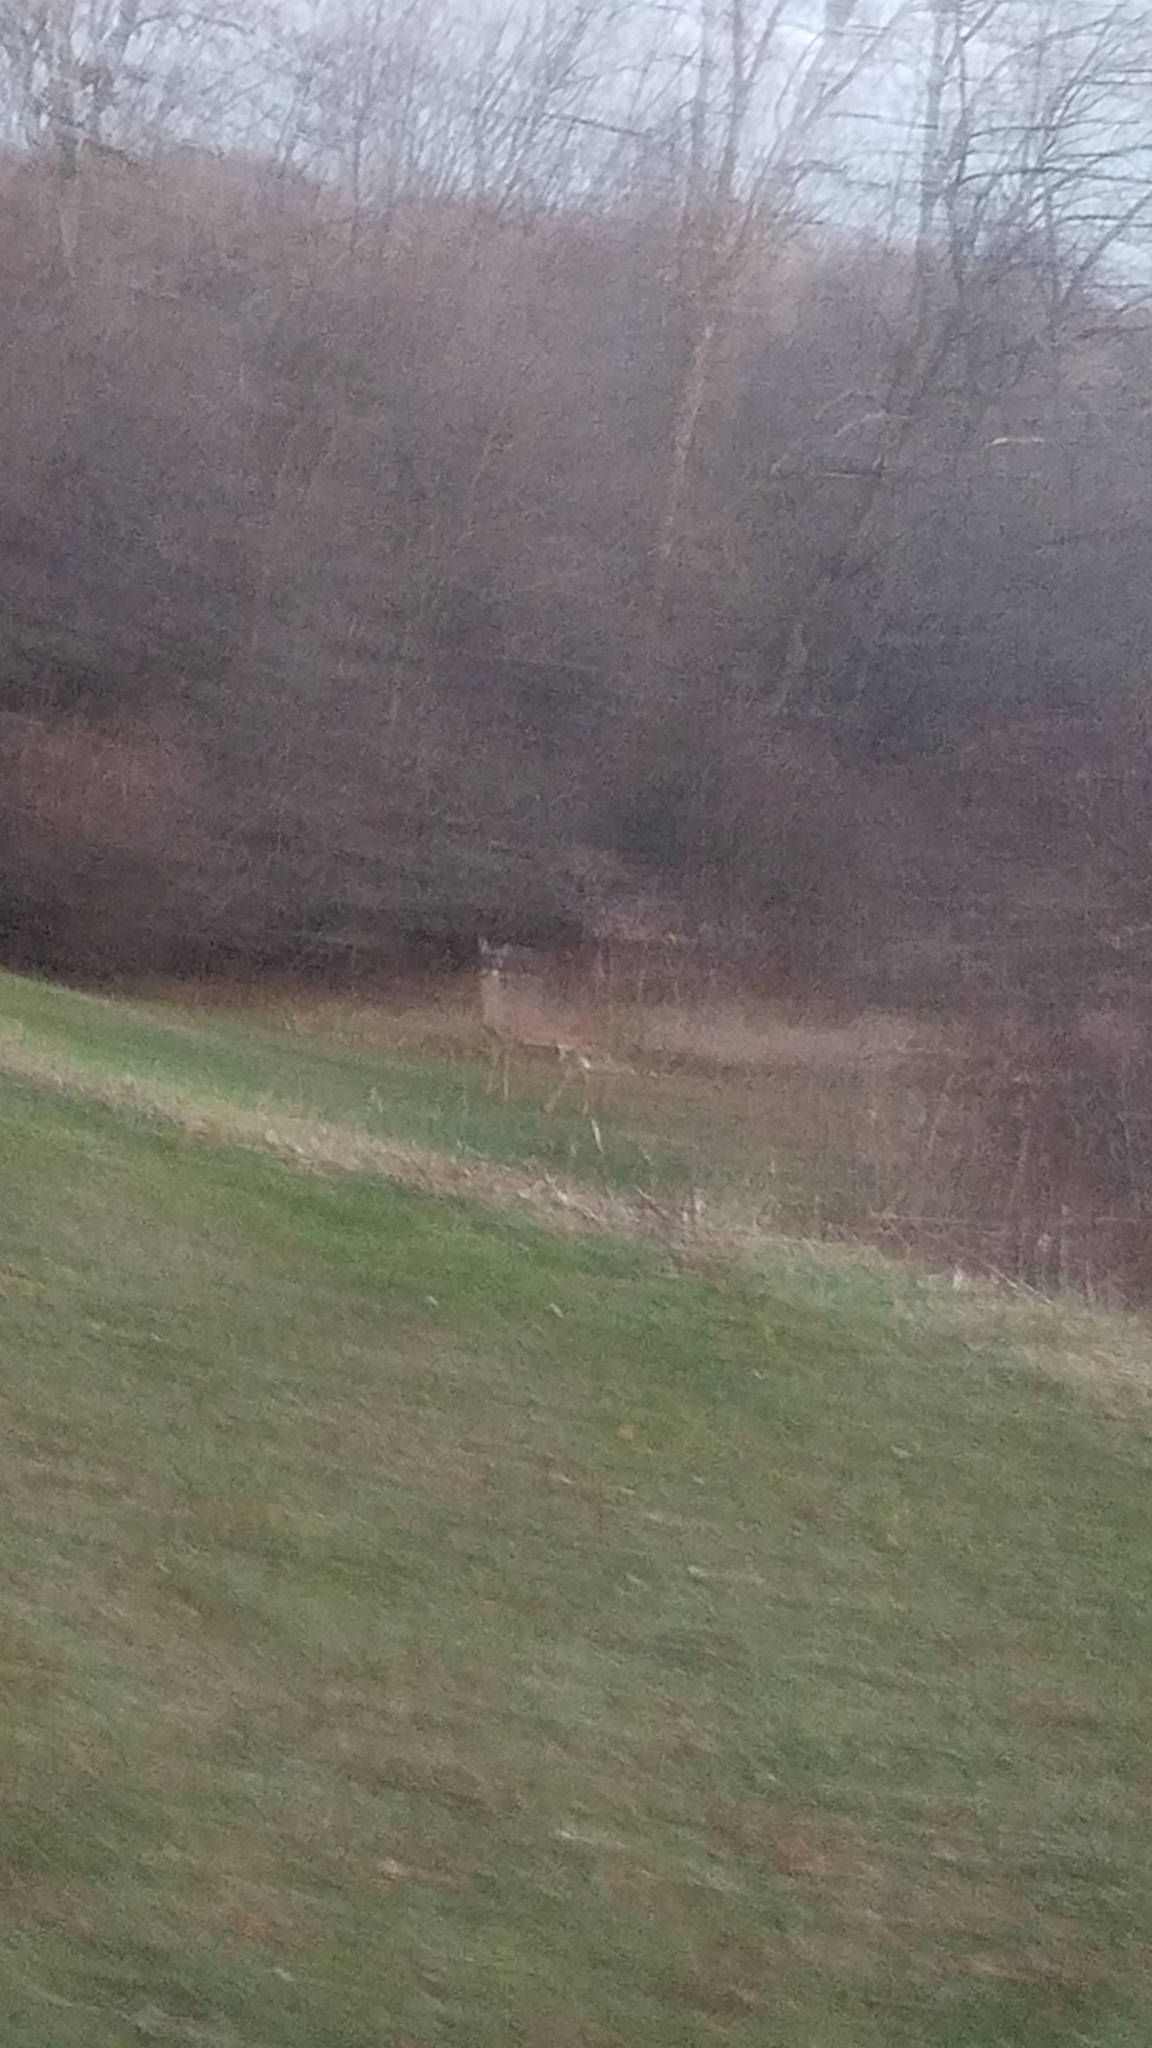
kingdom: Animalia
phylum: Chordata
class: Mammalia
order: Artiodactyla
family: Cervidae
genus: Odocoileus
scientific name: Odocoileus virginianus
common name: White-tailed deer
